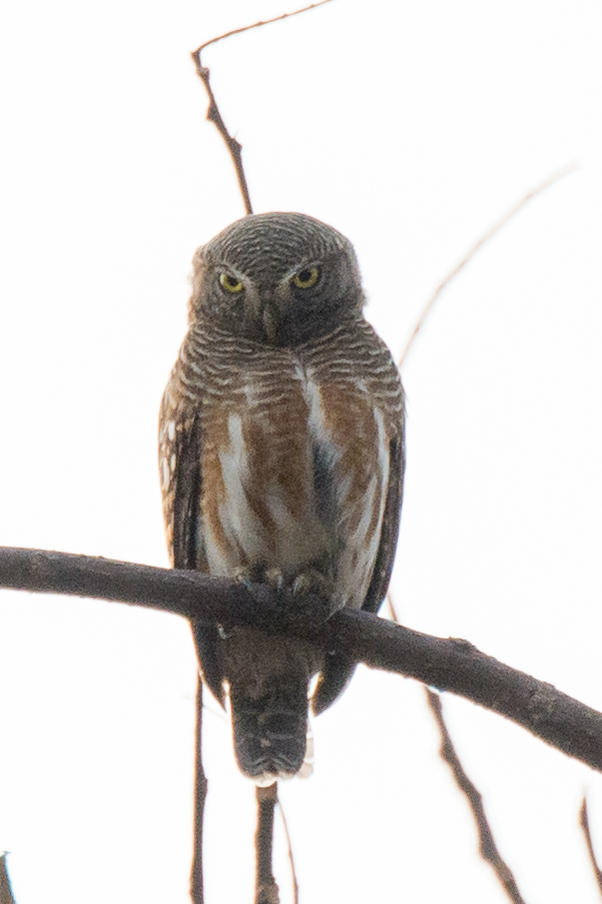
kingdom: Animalia
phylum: Chordata
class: Aves
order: Strigiformes
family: Strigidae
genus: Glaucidium
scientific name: Glaucidium cuculoides
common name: Asian barred owlet
